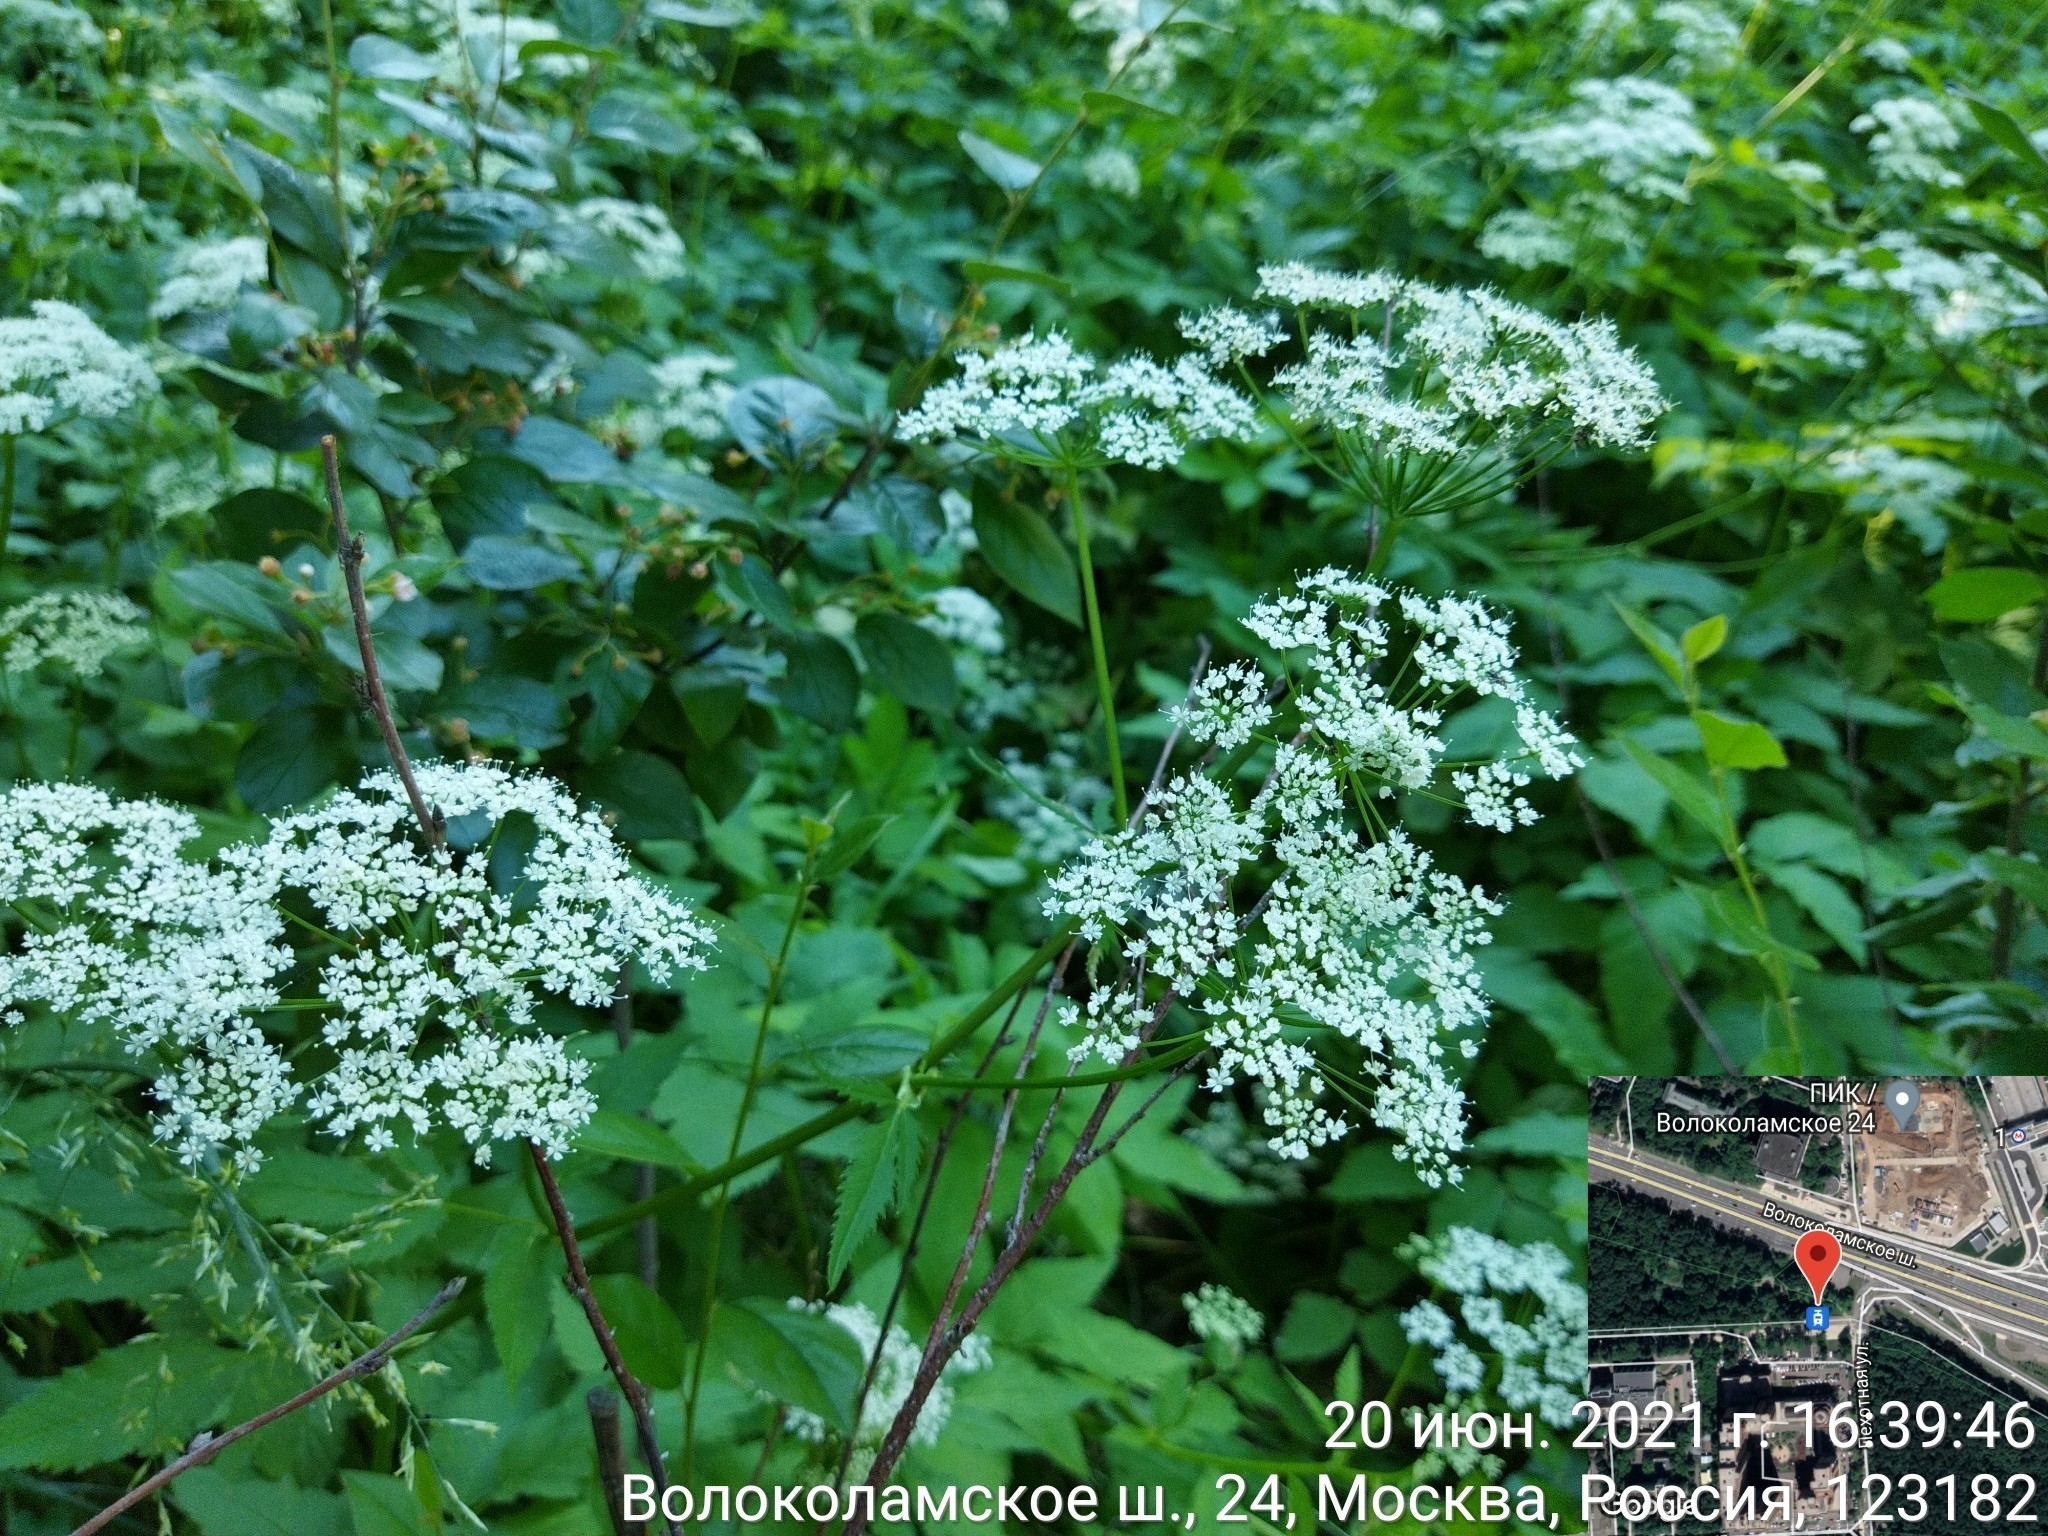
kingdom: Plantae
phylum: Tracheophyta
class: Magnoliopsida
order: Apiales
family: Apiaceae
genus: Aegopodium
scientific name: Aegopodium podagraria
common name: Ground-elder
